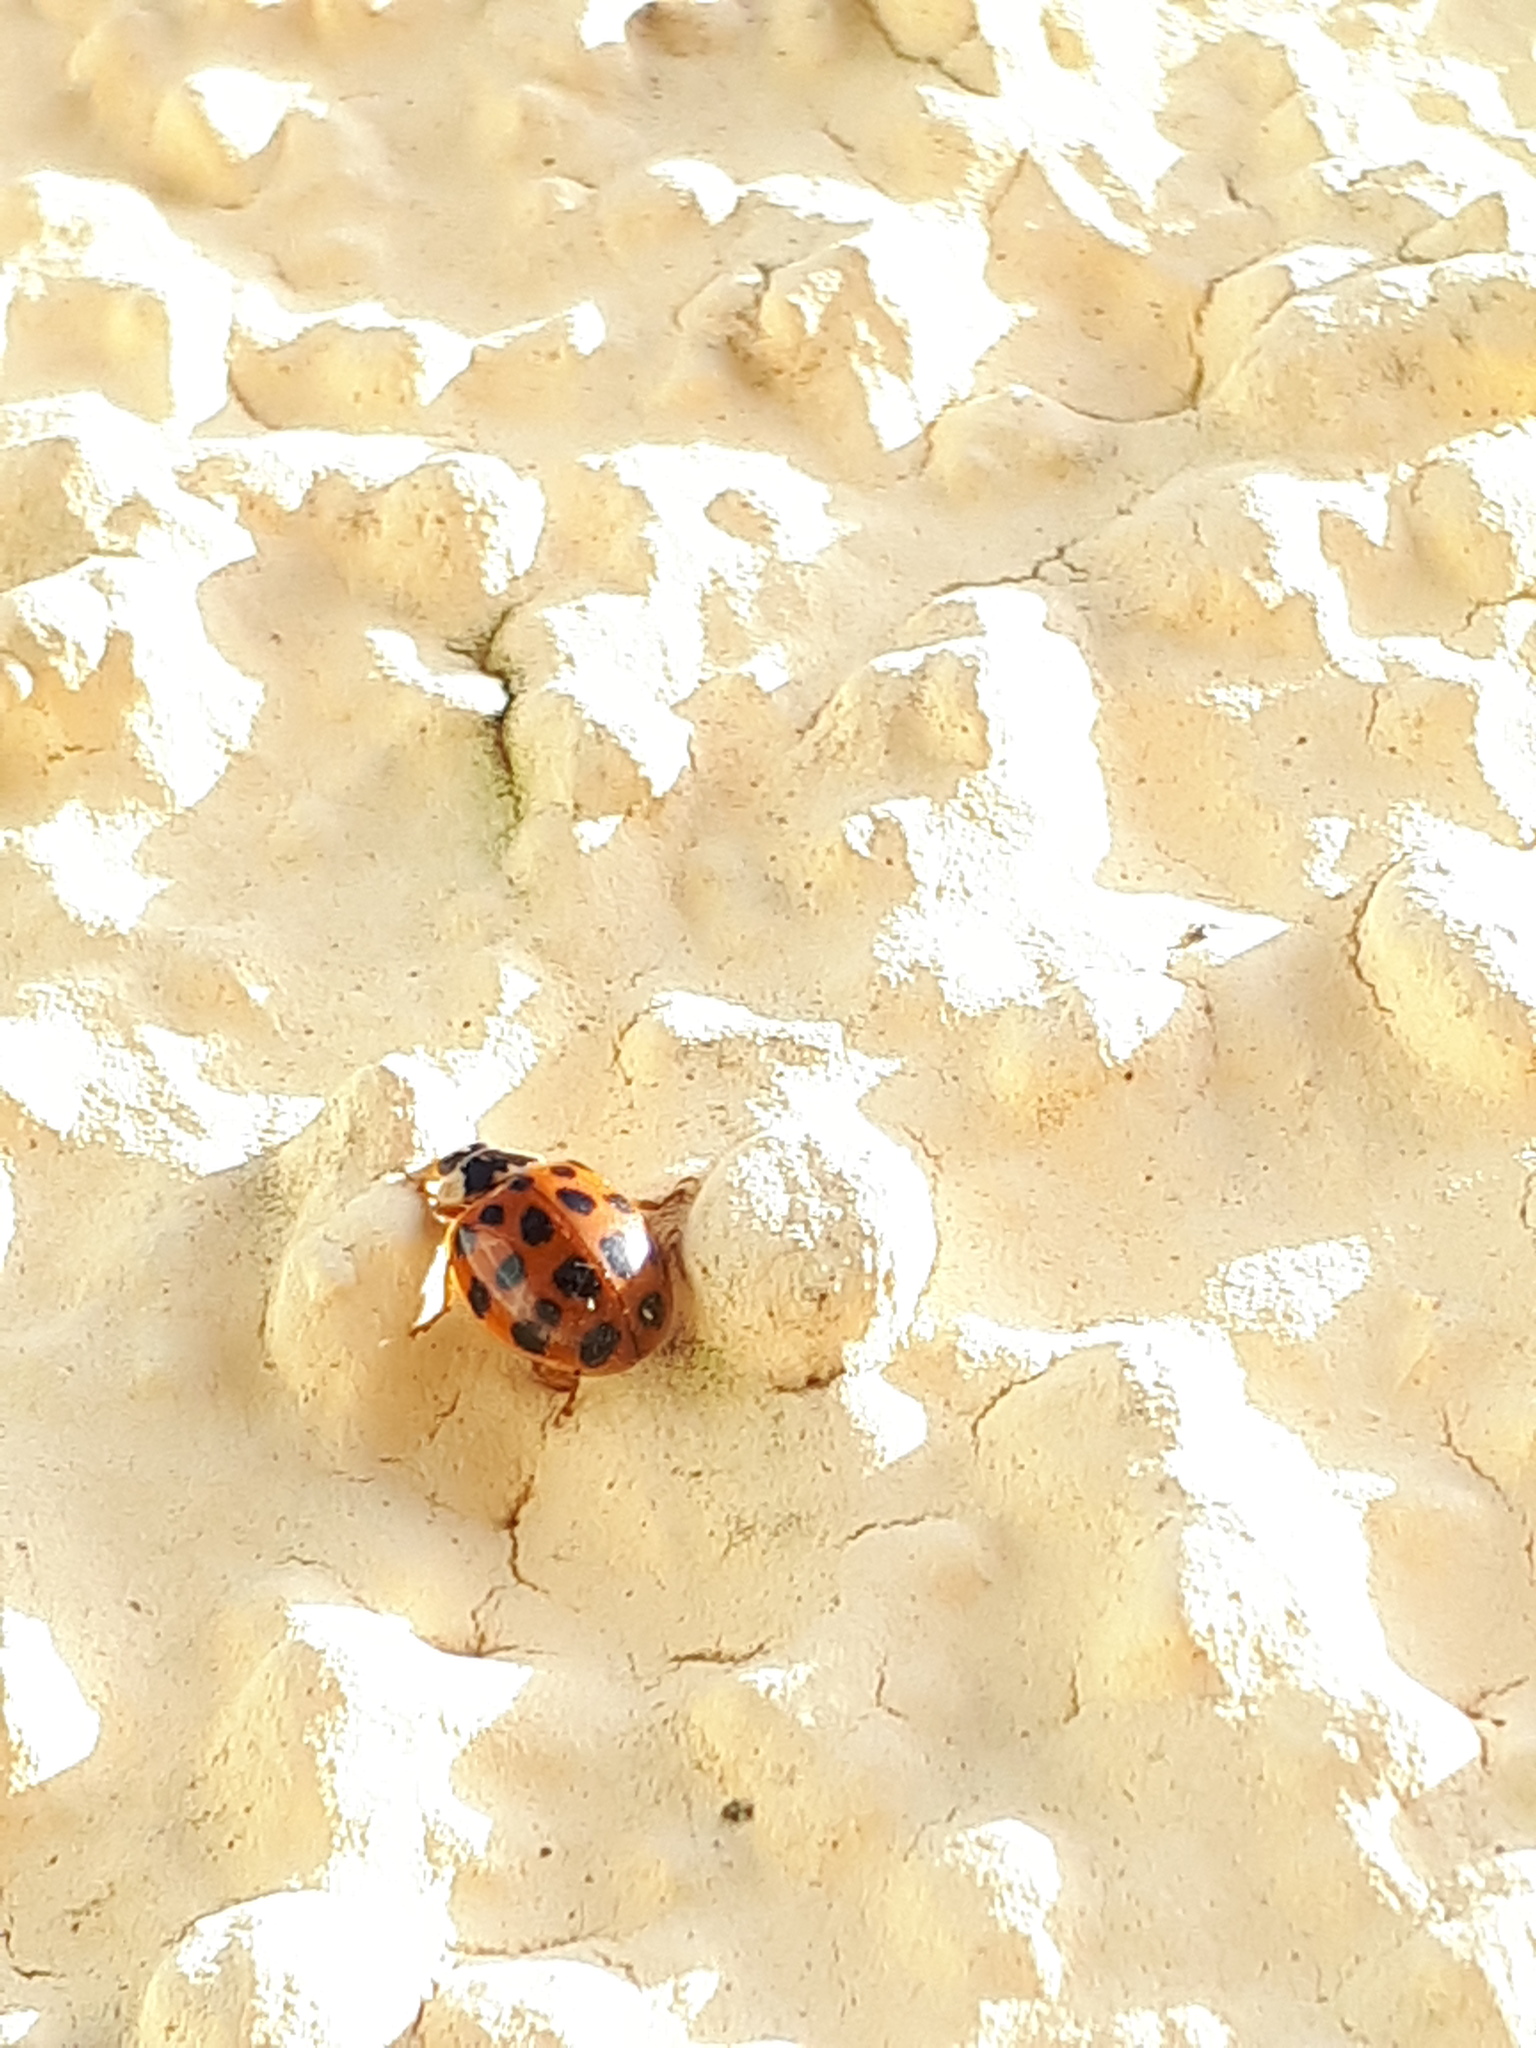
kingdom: Animalia
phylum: Arthropoda
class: Insecta
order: Coleoptera
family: Coccinellidae
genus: Harmonia
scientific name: Harmonia axyridis
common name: Harlequin ladybird
